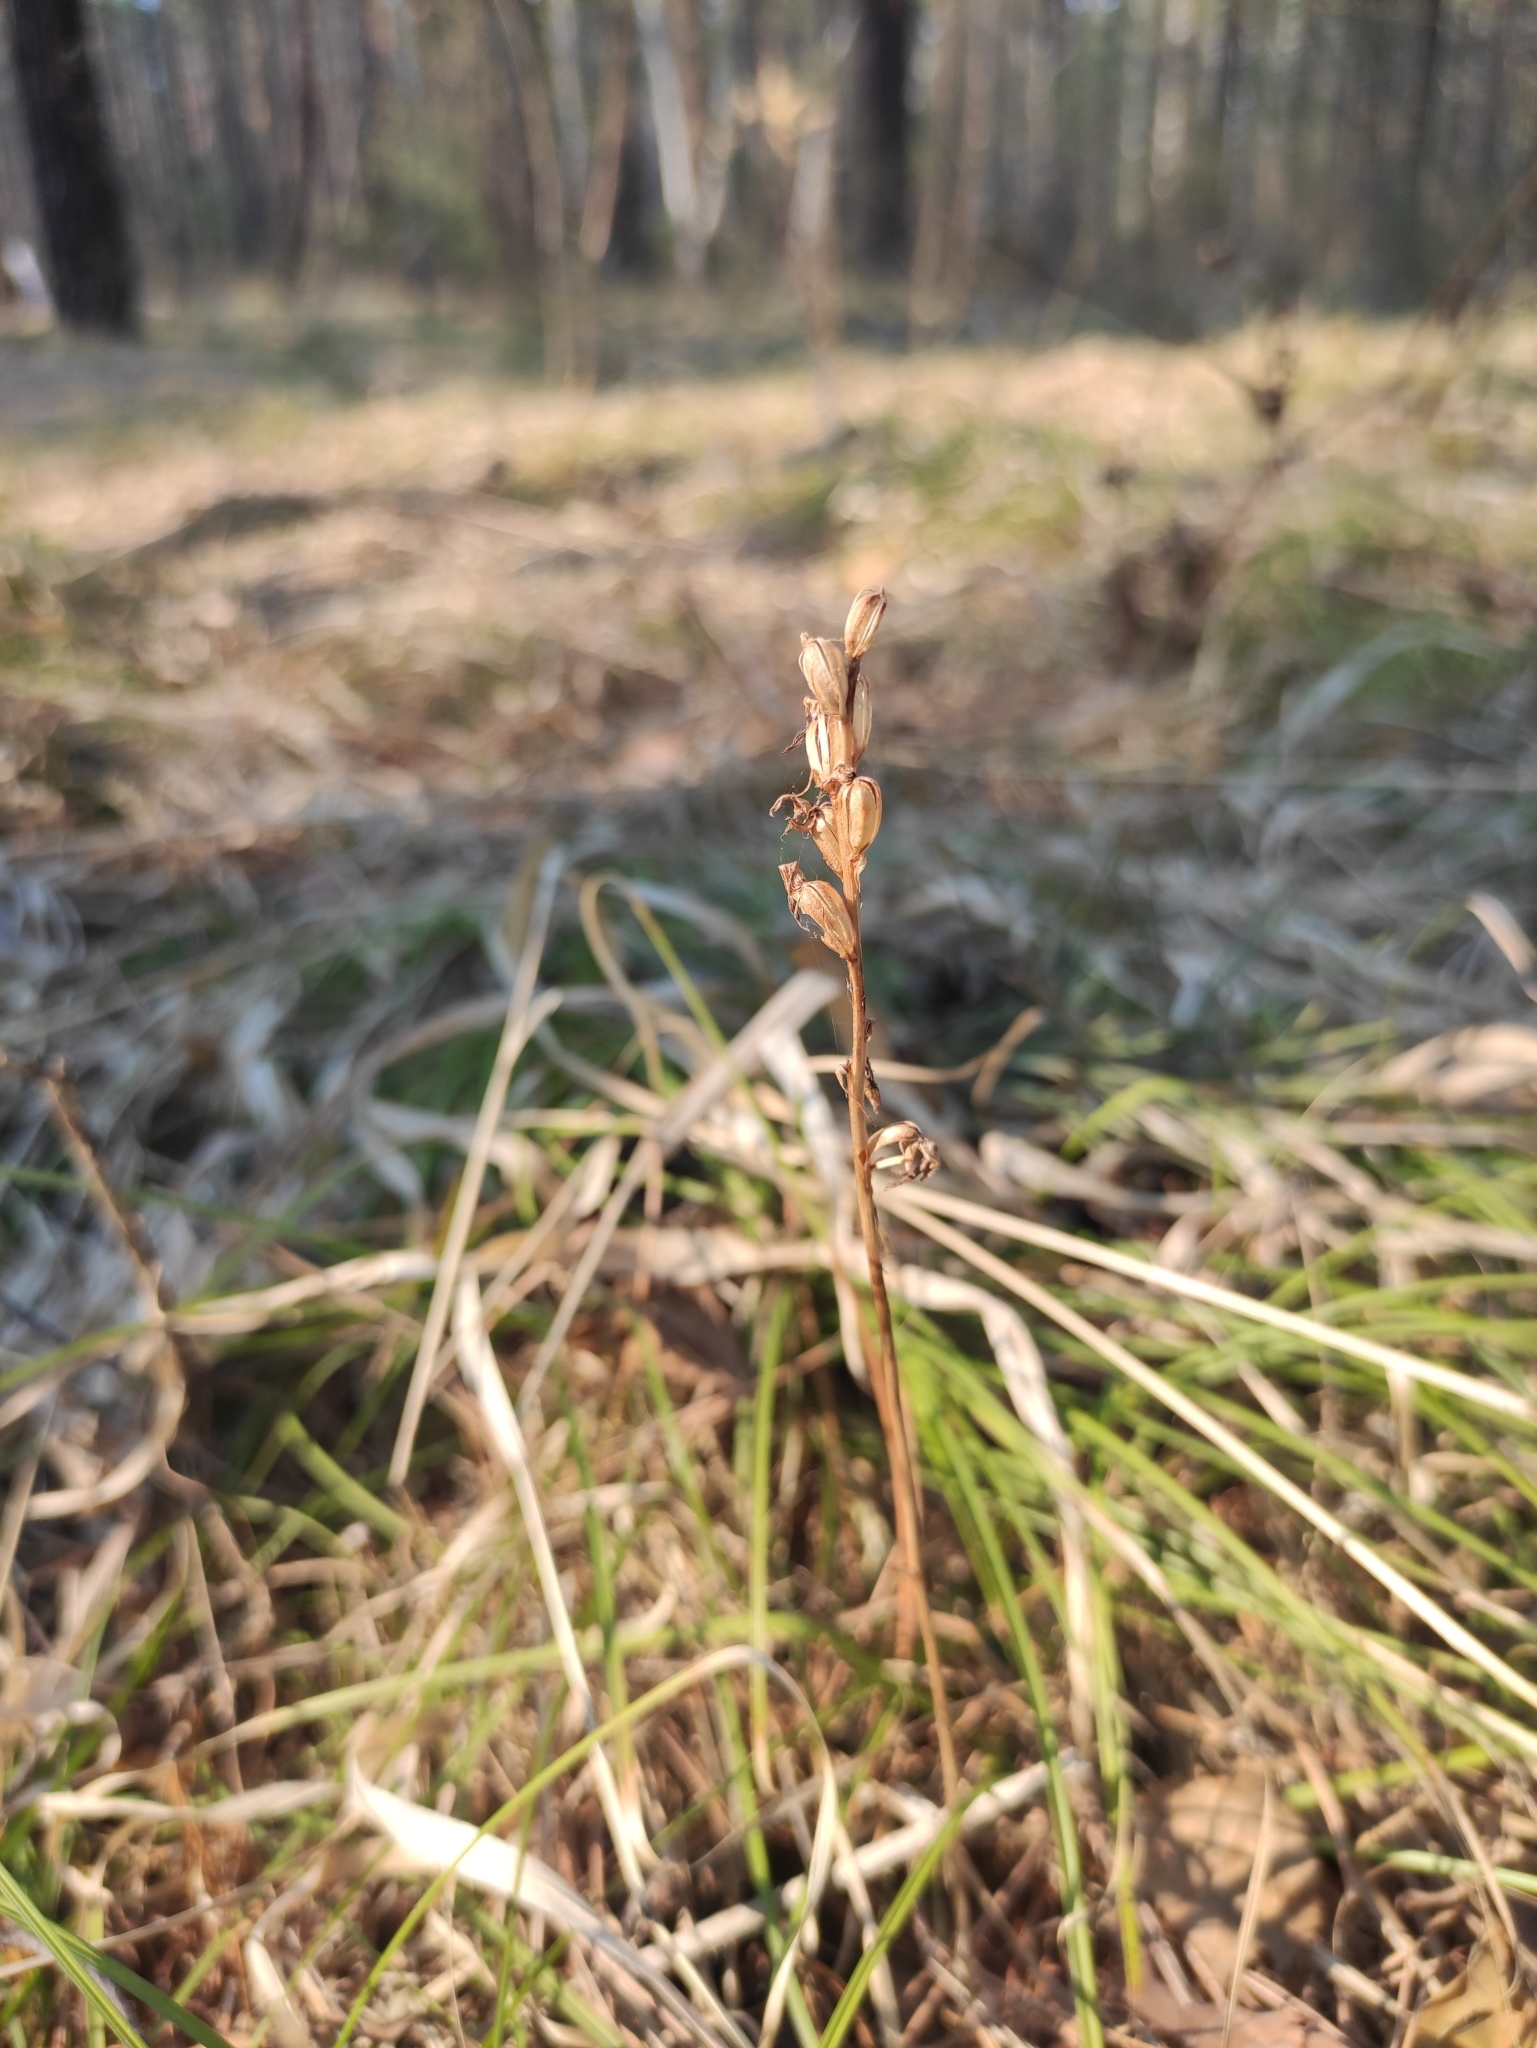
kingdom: Plantae
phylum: Tracheophyta
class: Liliopsida
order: Asparagales
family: Orchidaceae
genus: Hemipilia
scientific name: Hemipilia cucullata
